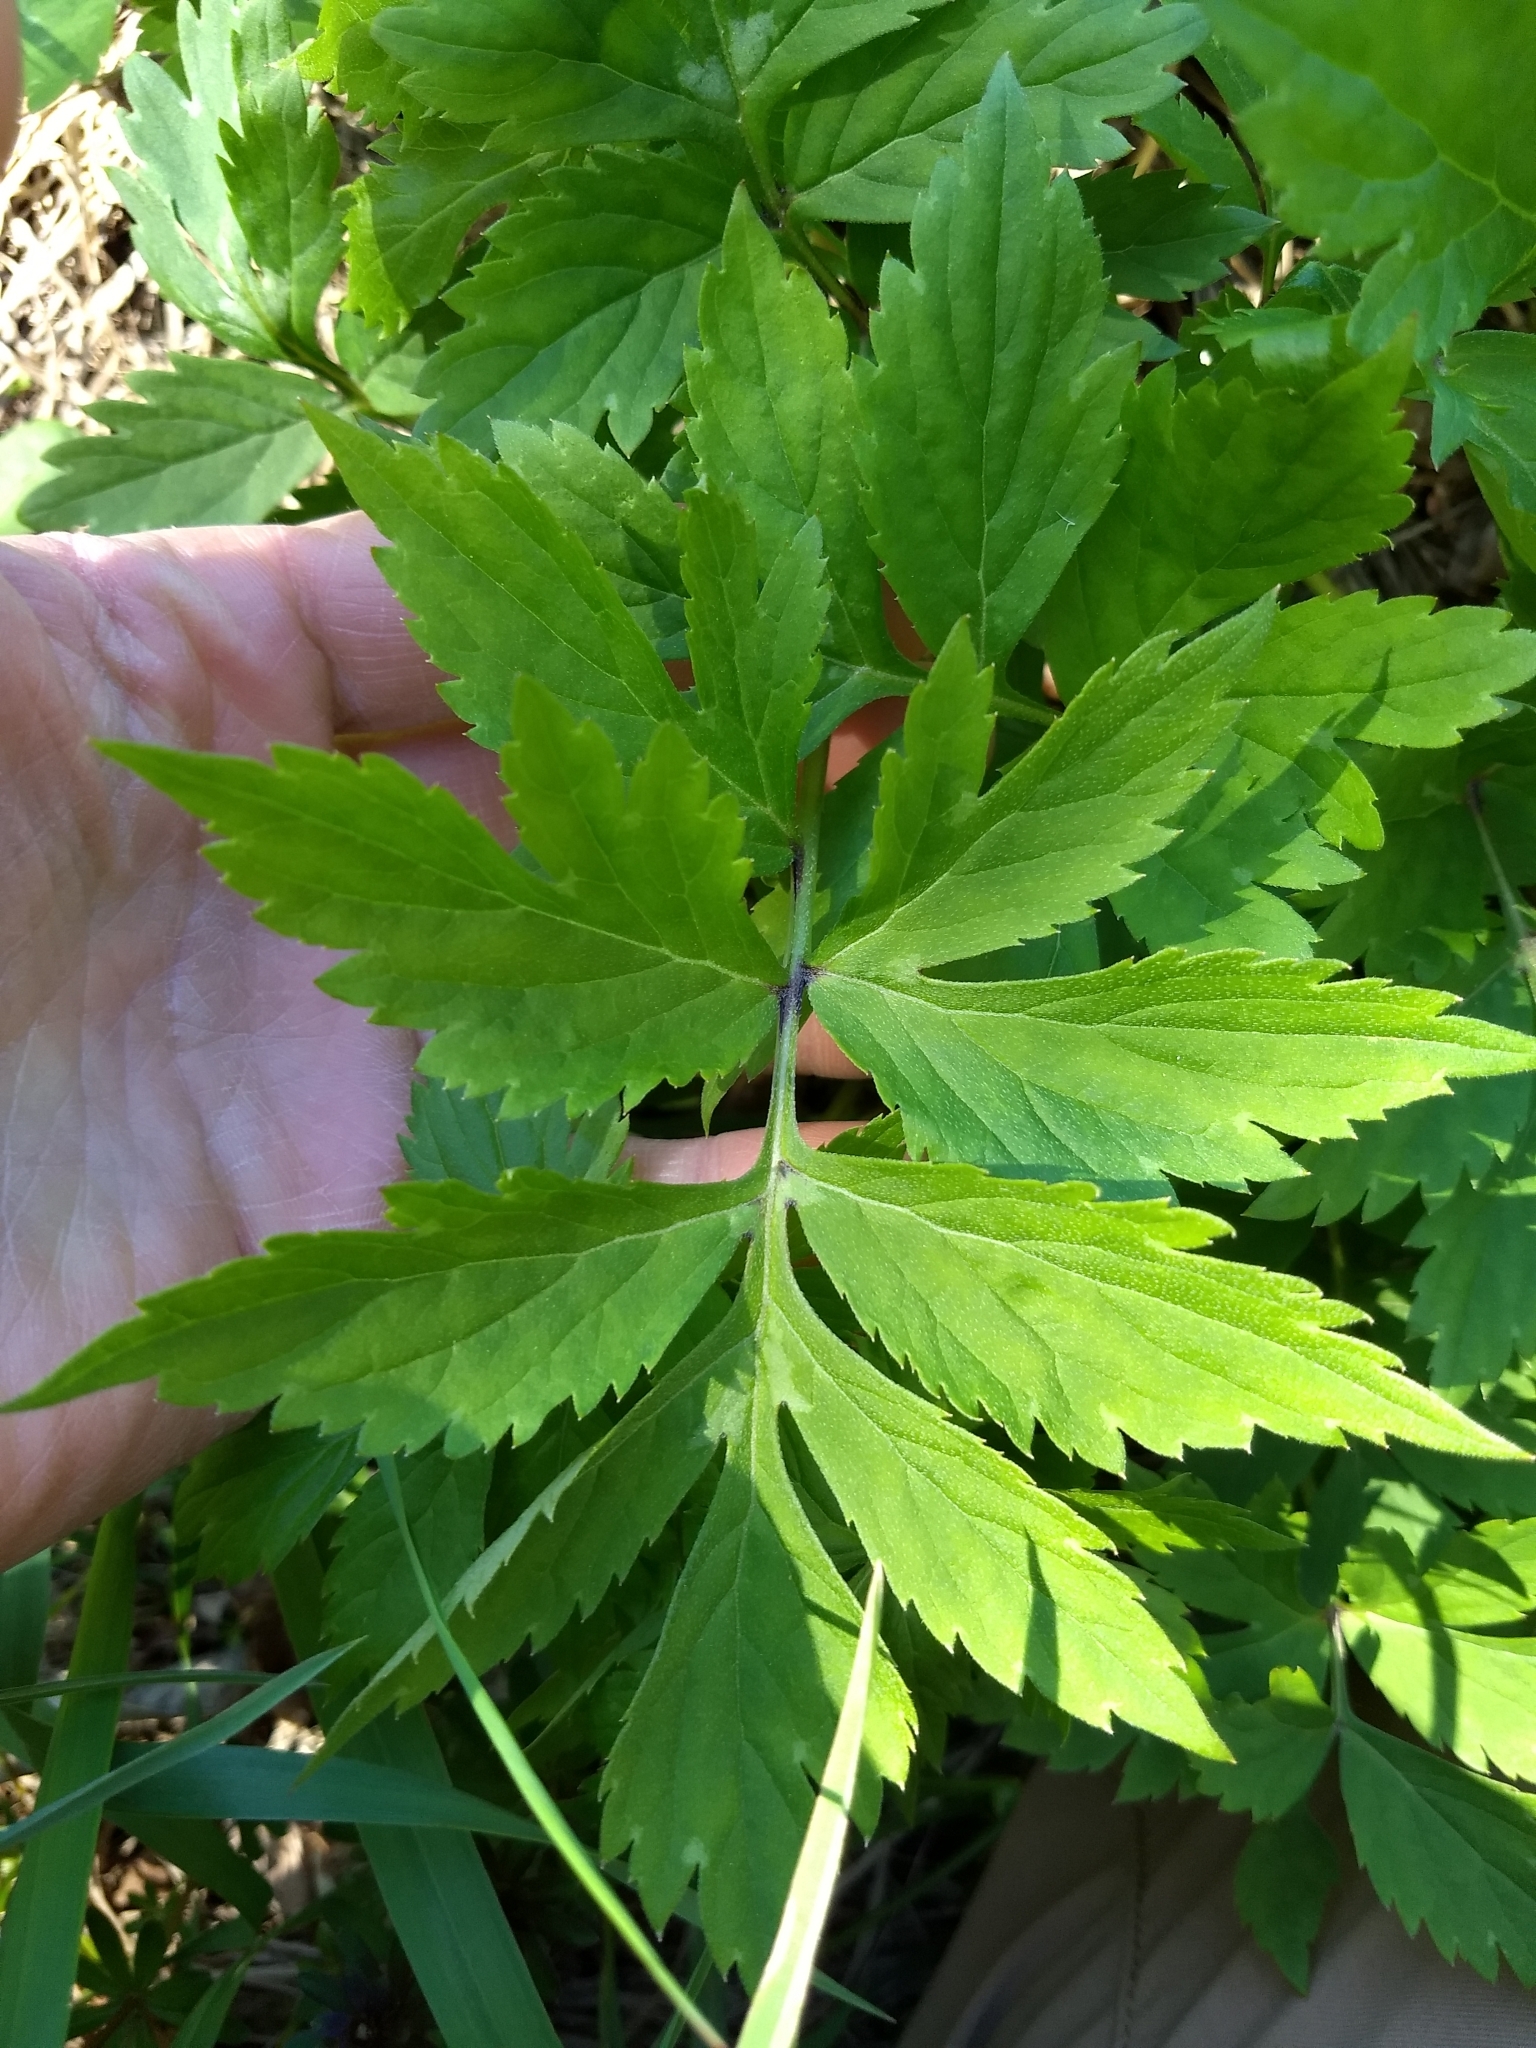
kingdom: Plantae
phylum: Tracheophyta
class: Magnoliopsida
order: Boraginales
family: Hydrophyllaceae
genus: Hydrophyllum
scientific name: Hydrophyllum virginianum
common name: Virginia waterleaf
